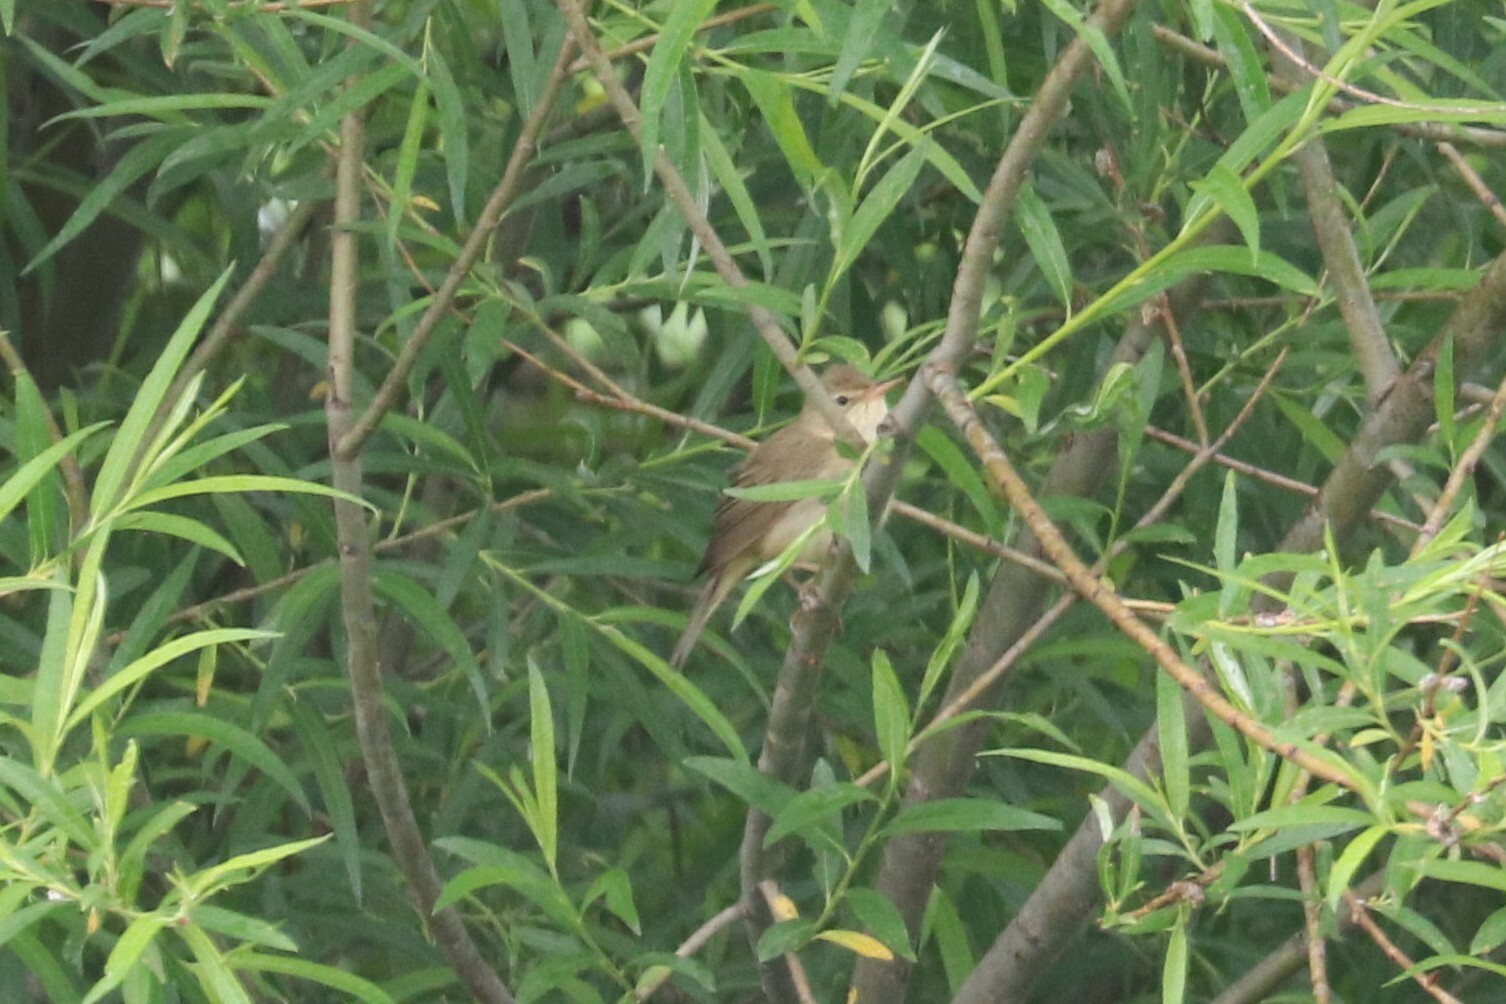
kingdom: Animalia
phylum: Chordata
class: Aves
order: Passeriformes
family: Acrocephalidae
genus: Acrocephalus
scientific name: Acrocephalus palustris
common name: Marsh warbler
